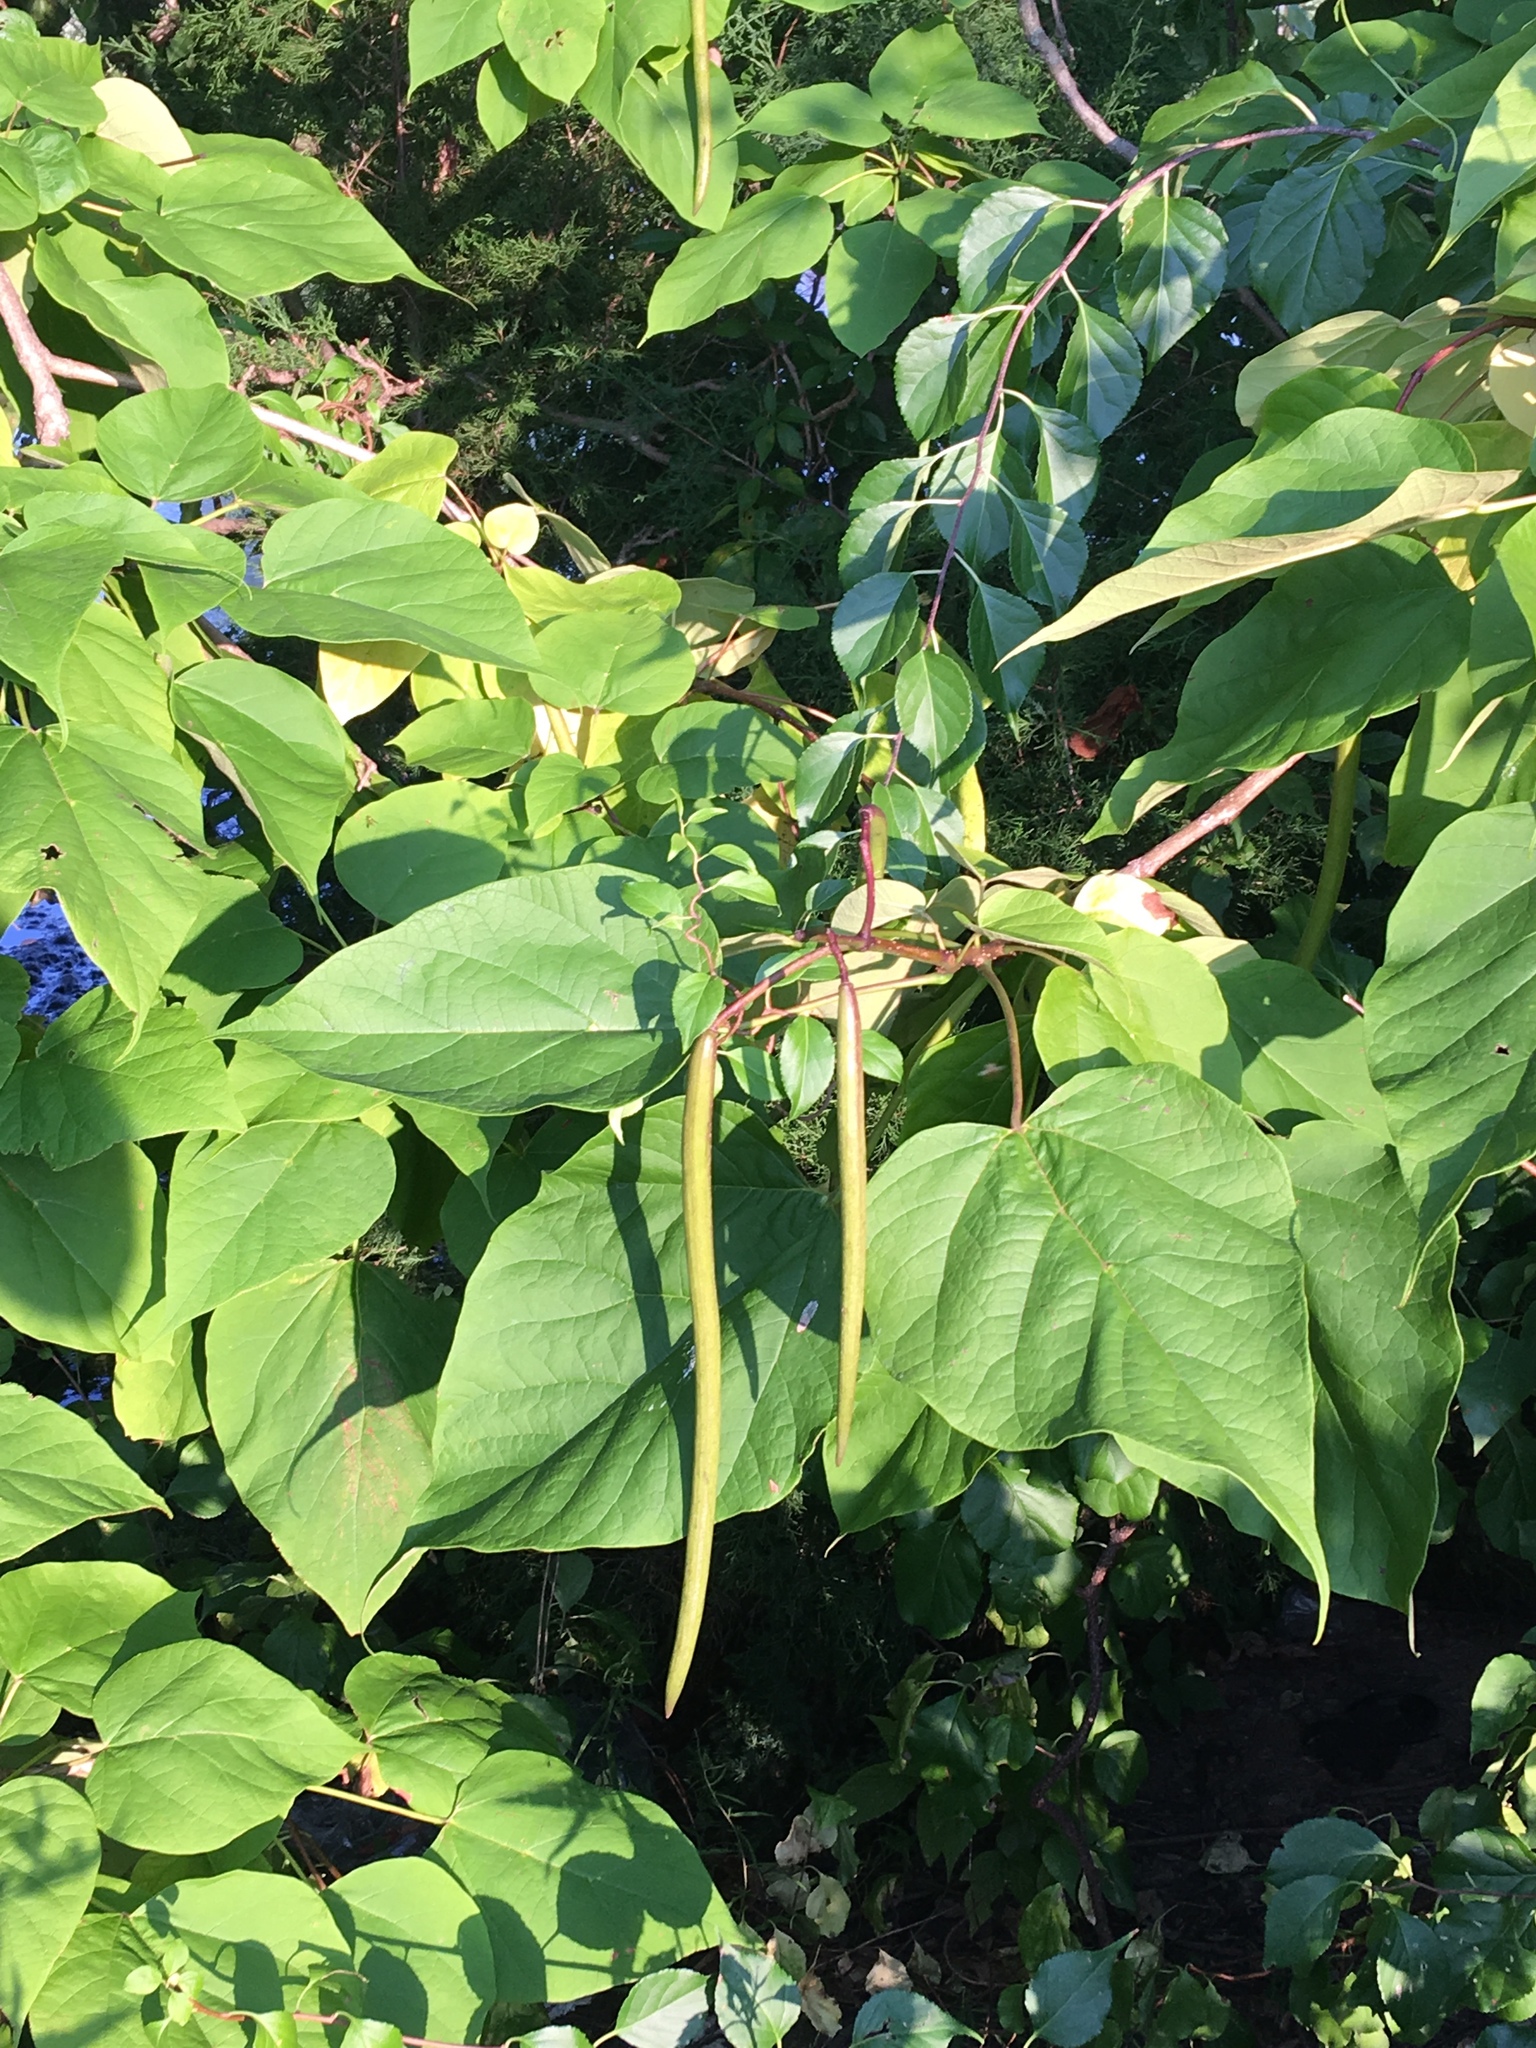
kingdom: Plantae
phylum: Tracheophyta
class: Magnoliopsida
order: Lamiales
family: Bignoniaceae
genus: Catalpa
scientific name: Catalpa speciosa
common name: Northern catalpa
